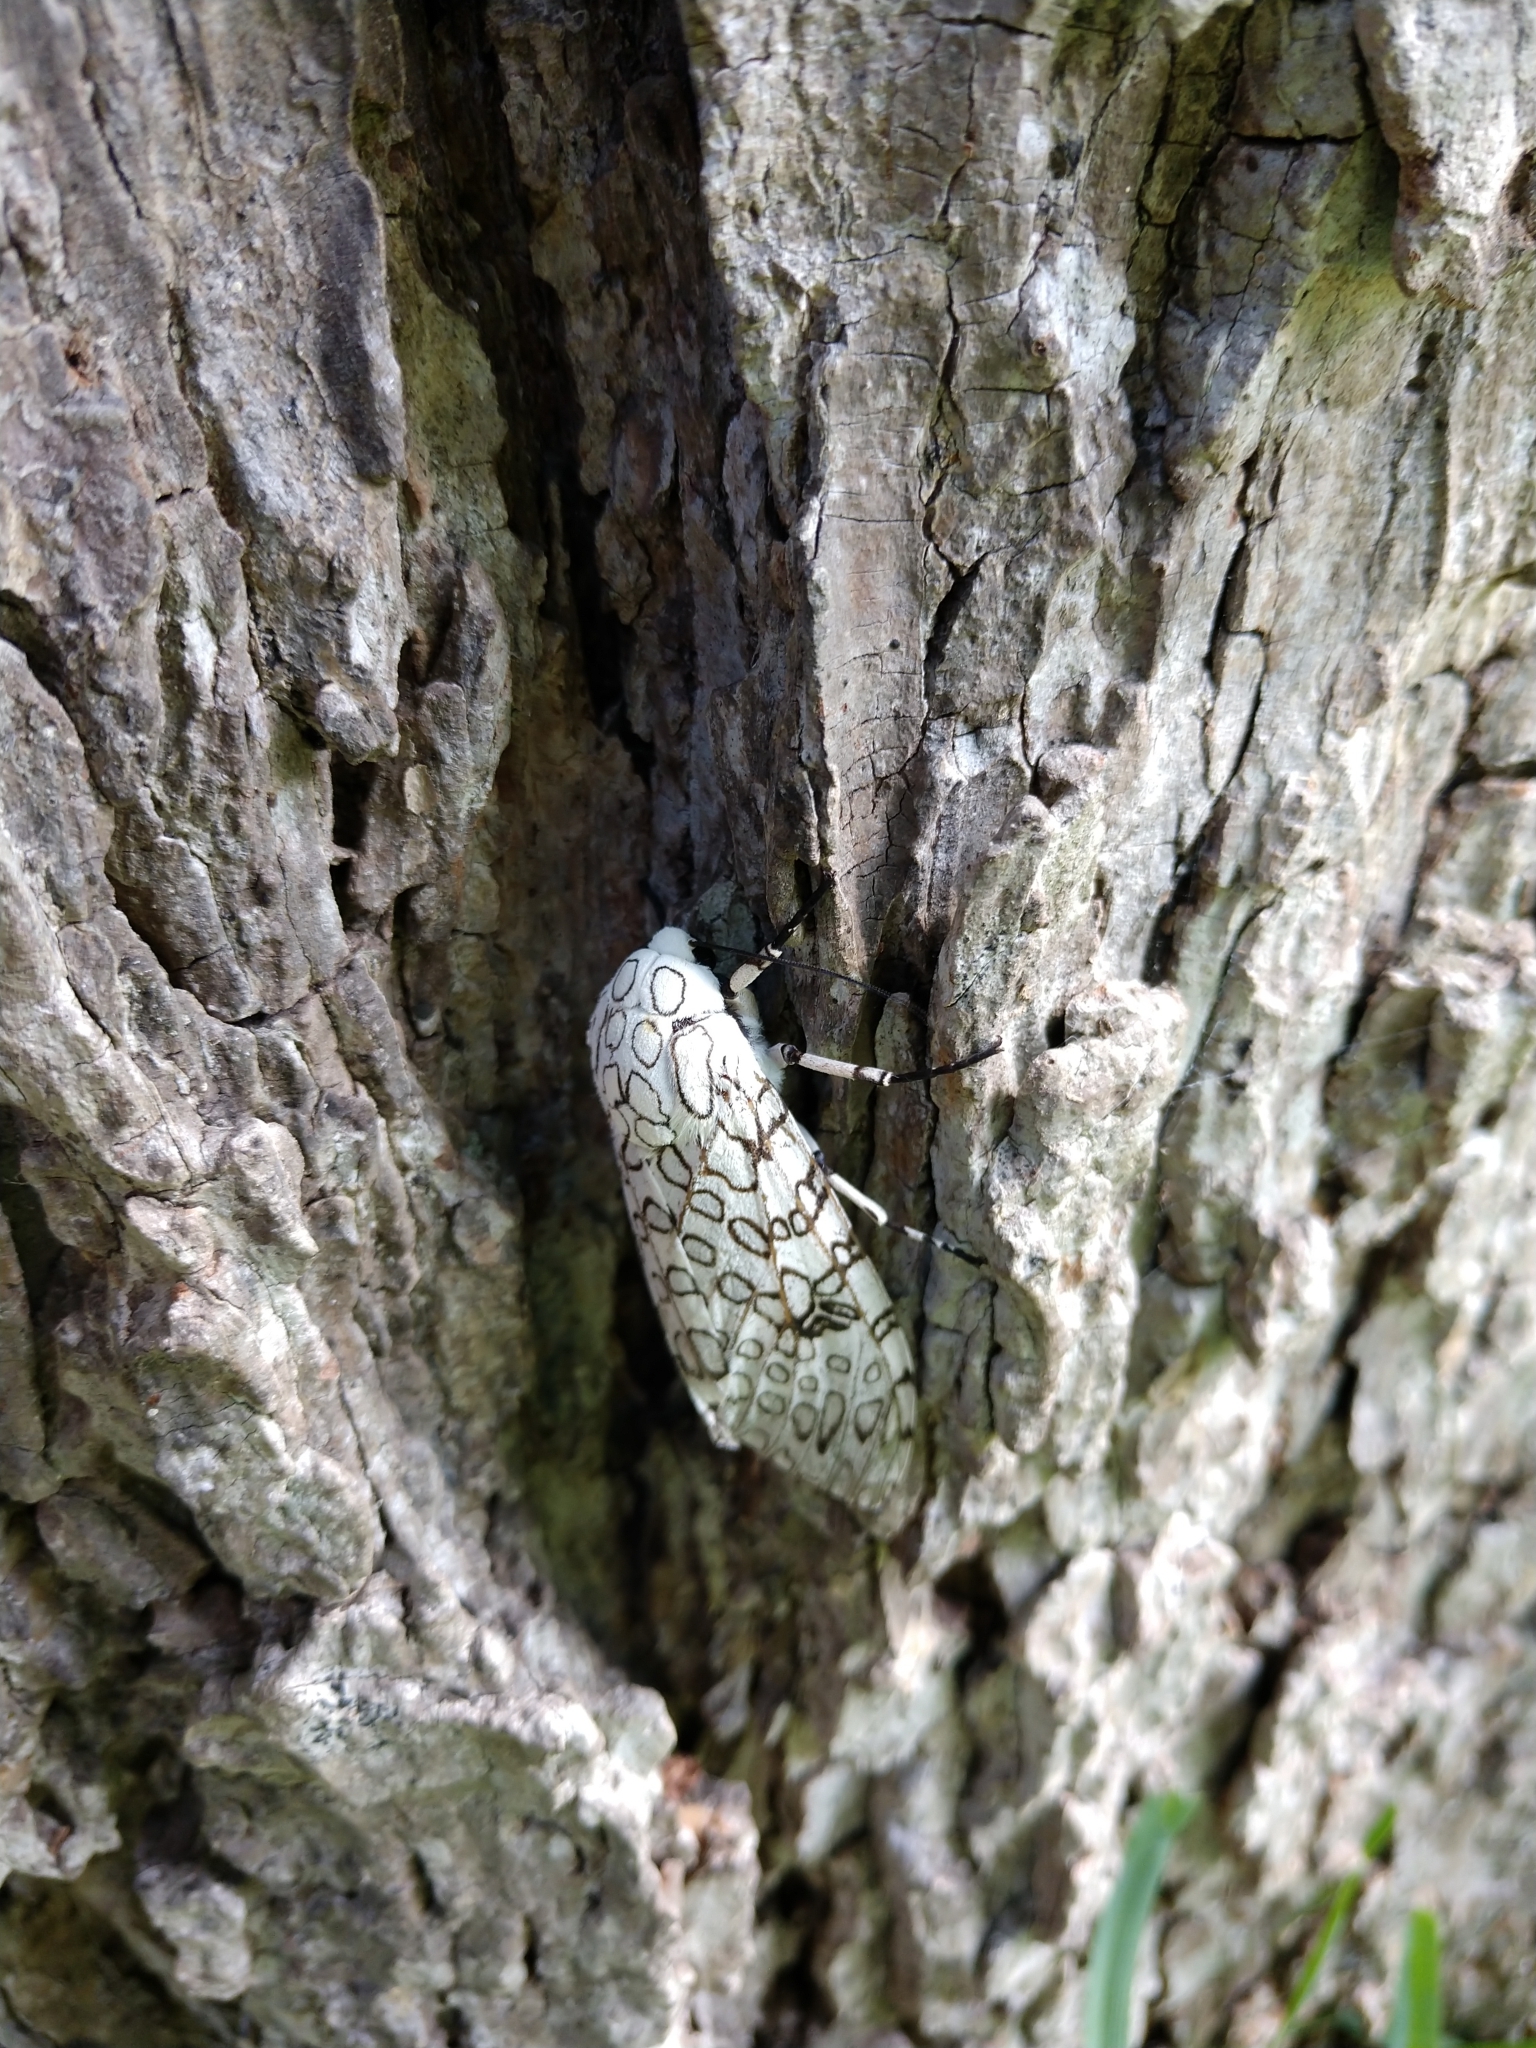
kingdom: Animalia
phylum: Arthropoda
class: Insecta
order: Lepidoptera
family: Erebidae
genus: Hypercompe
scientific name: Hypercompe scribonia
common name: Giant leopard moth
